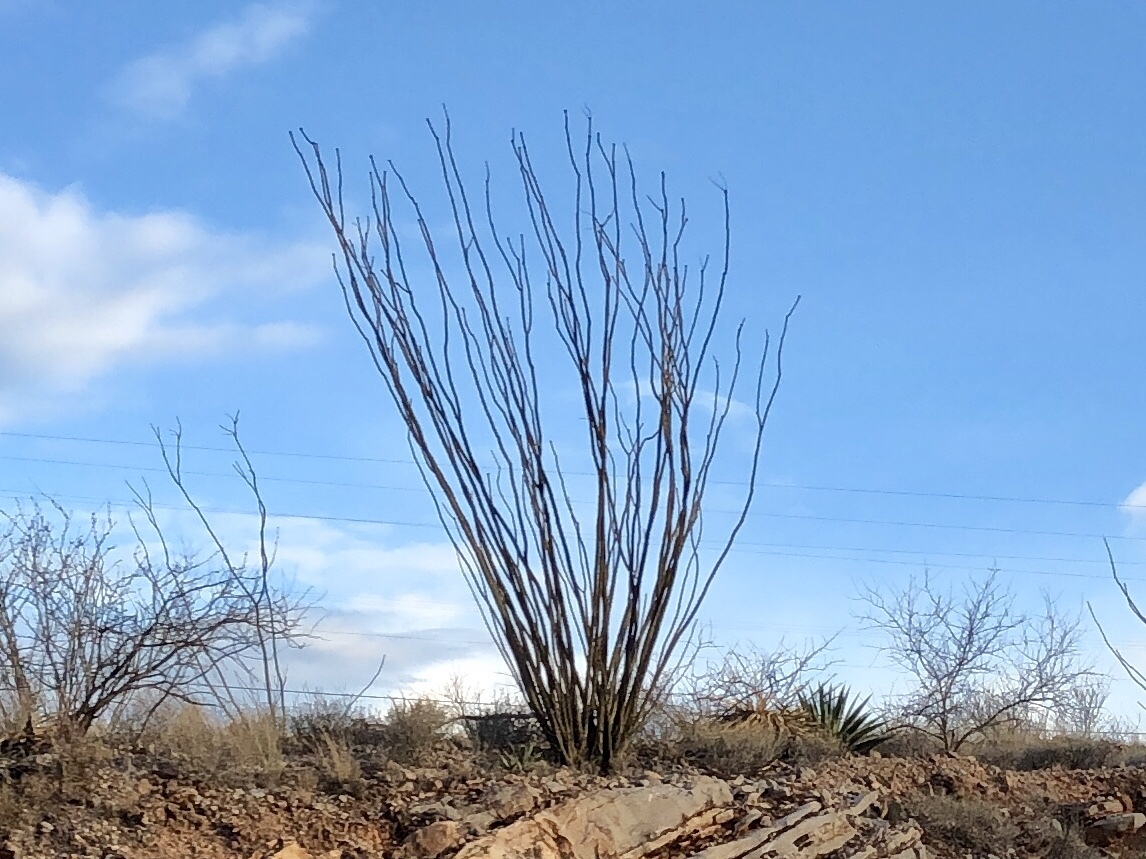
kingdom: Plantae
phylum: Tracheophyta
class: Magnoliopsida
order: Ericales
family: Fouquieriaceae
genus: Fouquieria
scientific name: Fouquieria splendens
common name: Vine-cactus
